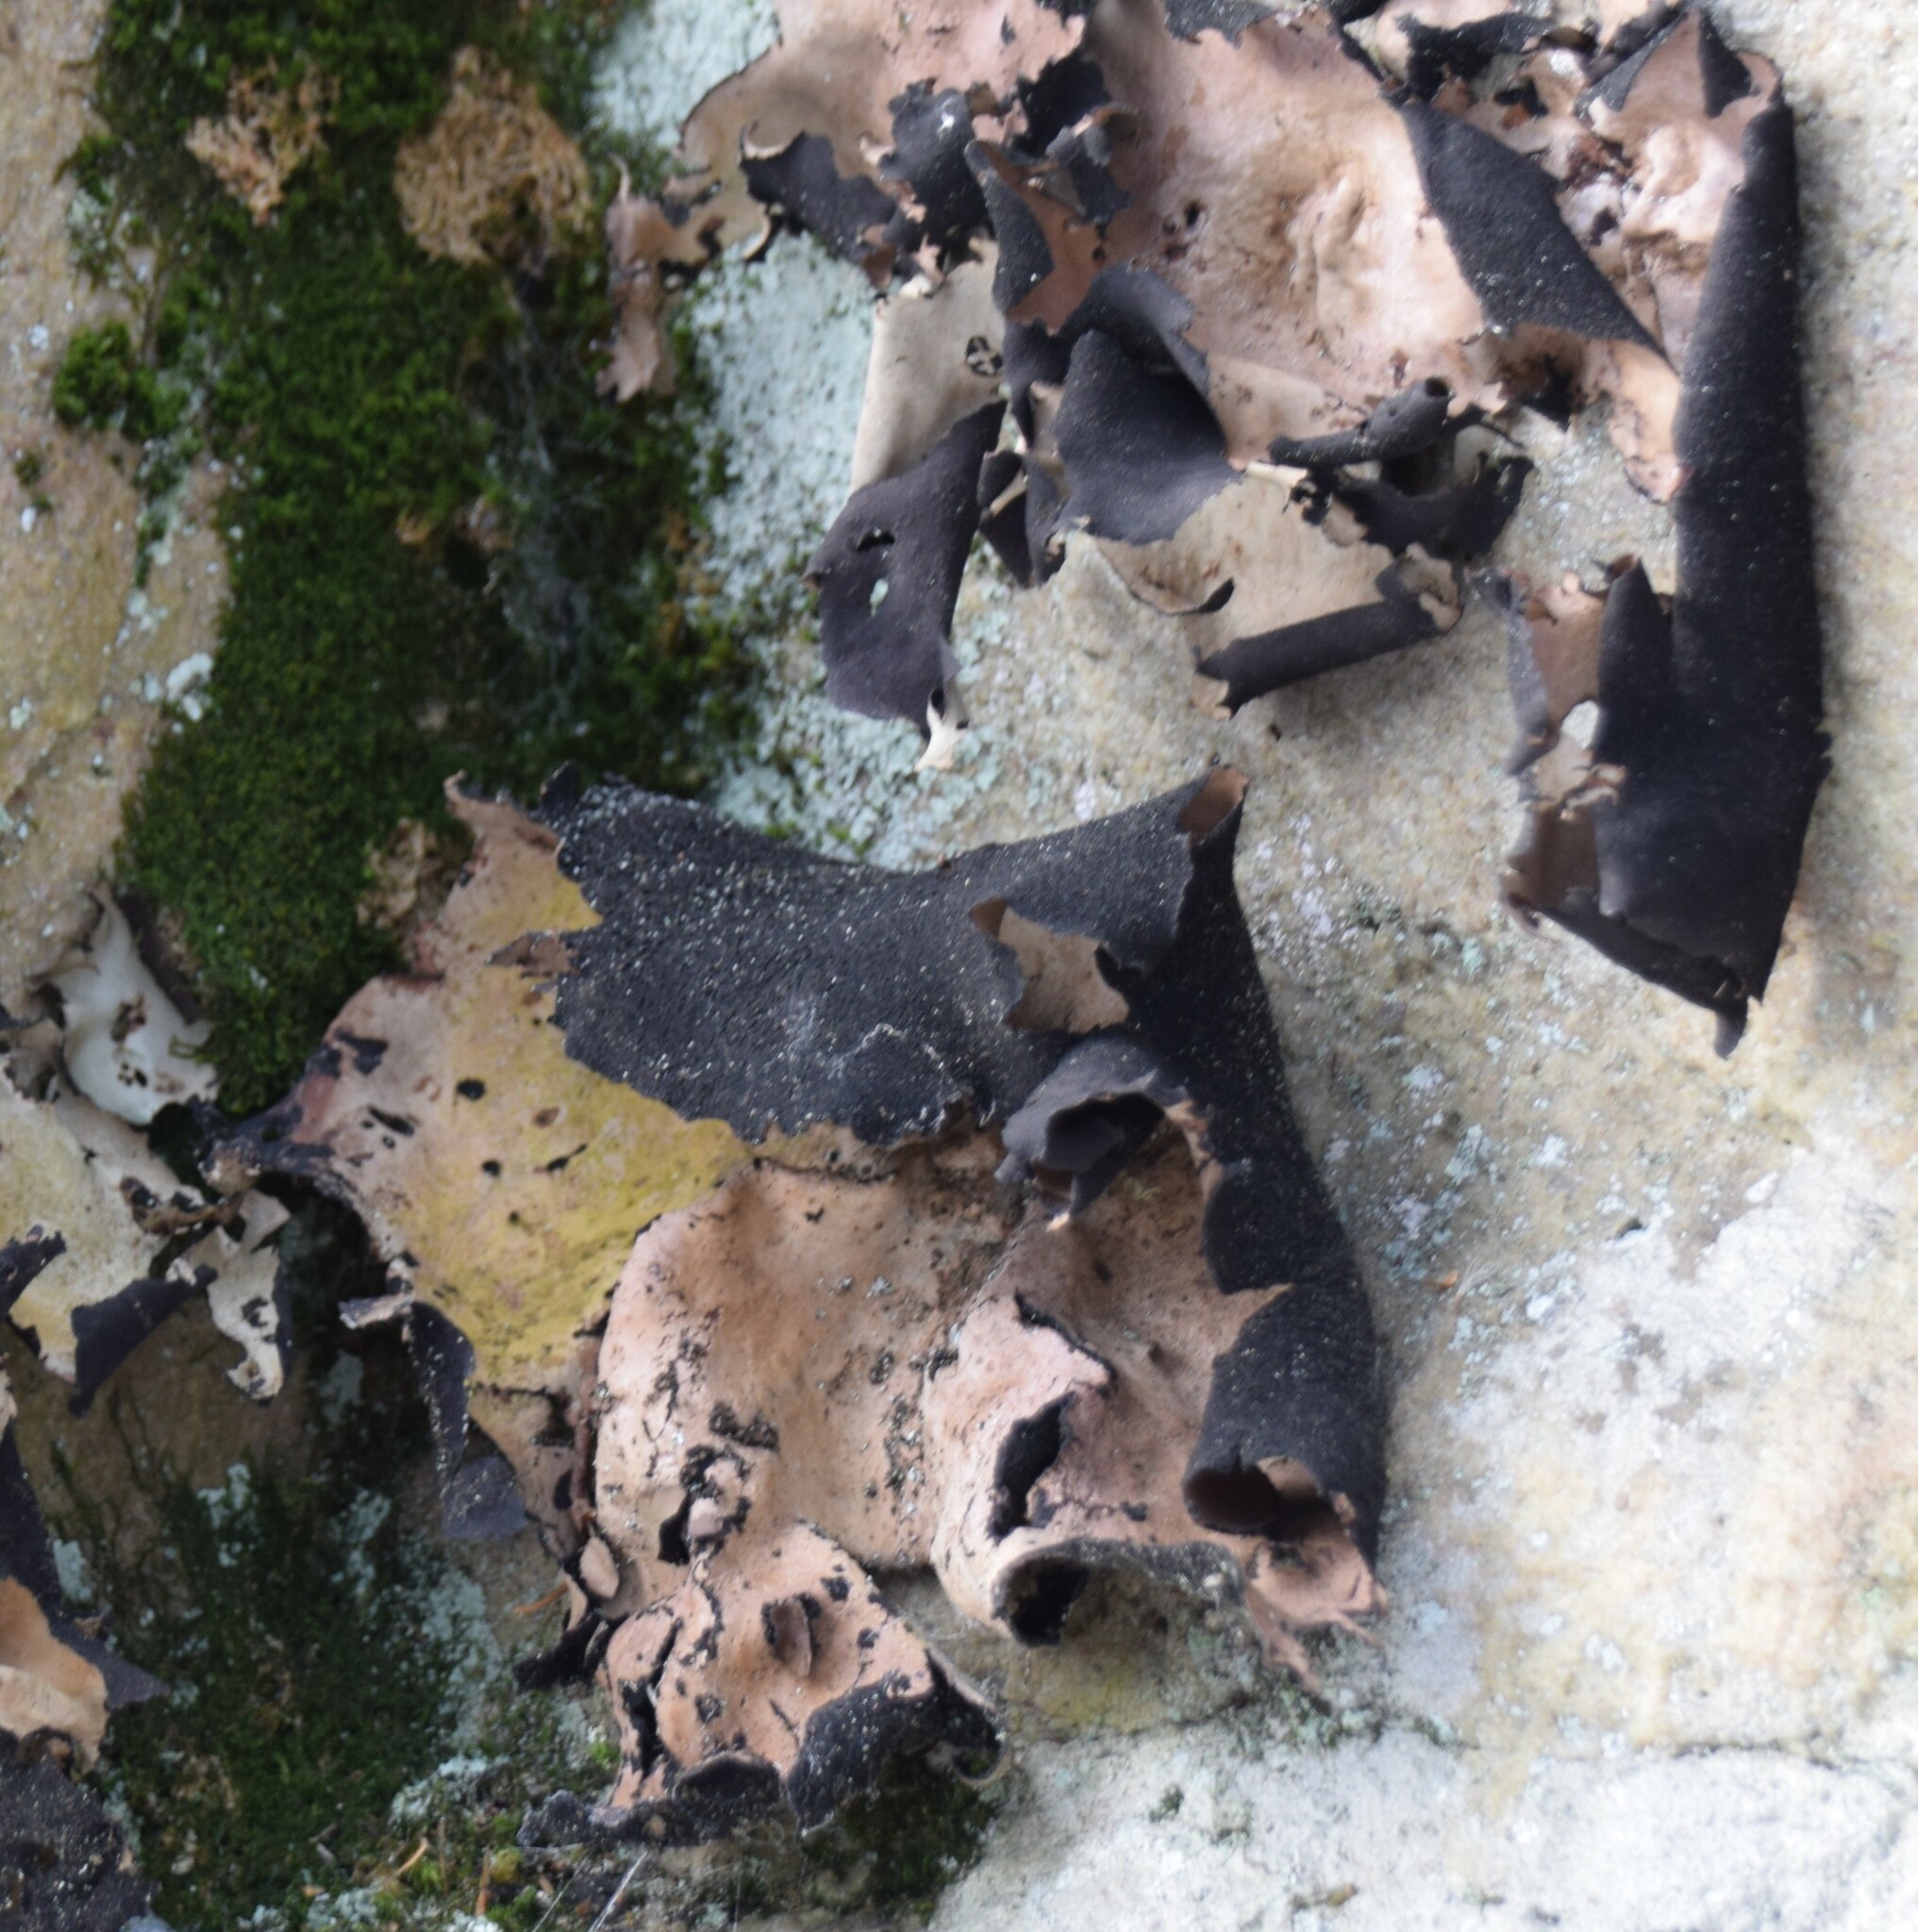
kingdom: Fungi
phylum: Ascomycota
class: Lecanoromycetes
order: Umbilicariales
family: Umbilicariaceae
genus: Umbilicaria
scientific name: Umbilicaria mammulata
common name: Smooth rock tripe
